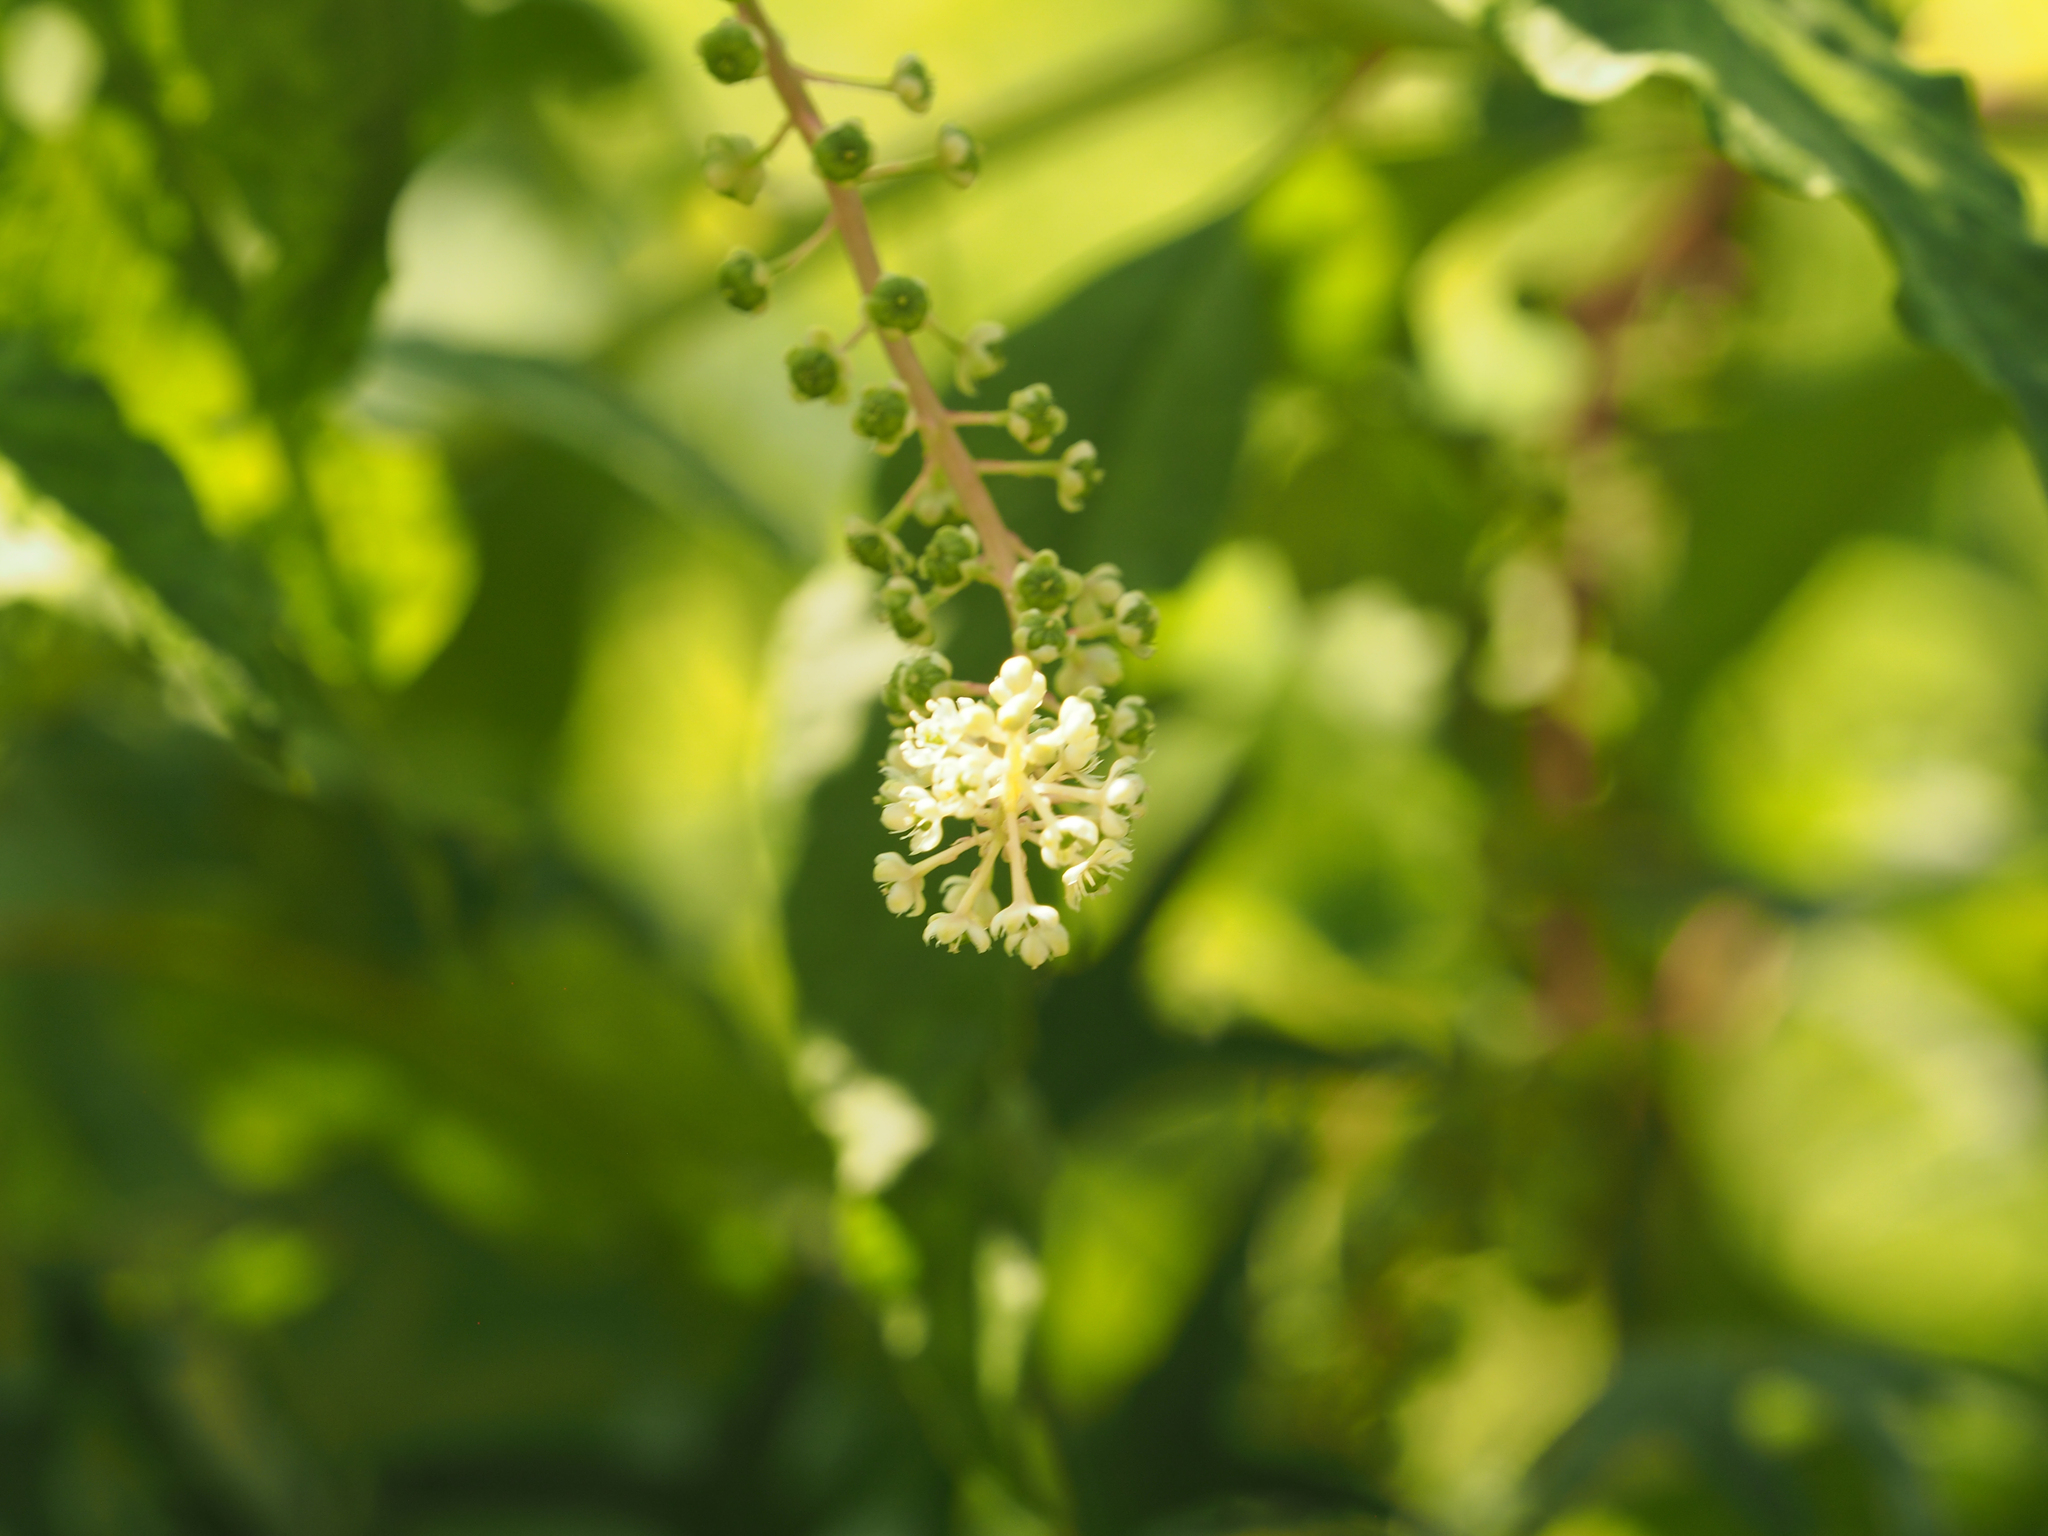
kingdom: Plantae
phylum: Tracheophyta
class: Magnoliopsida
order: Caryophyllales
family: Phytolaccaceae
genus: Phytolacca
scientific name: Phytolacca americana
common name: American pokeweed
